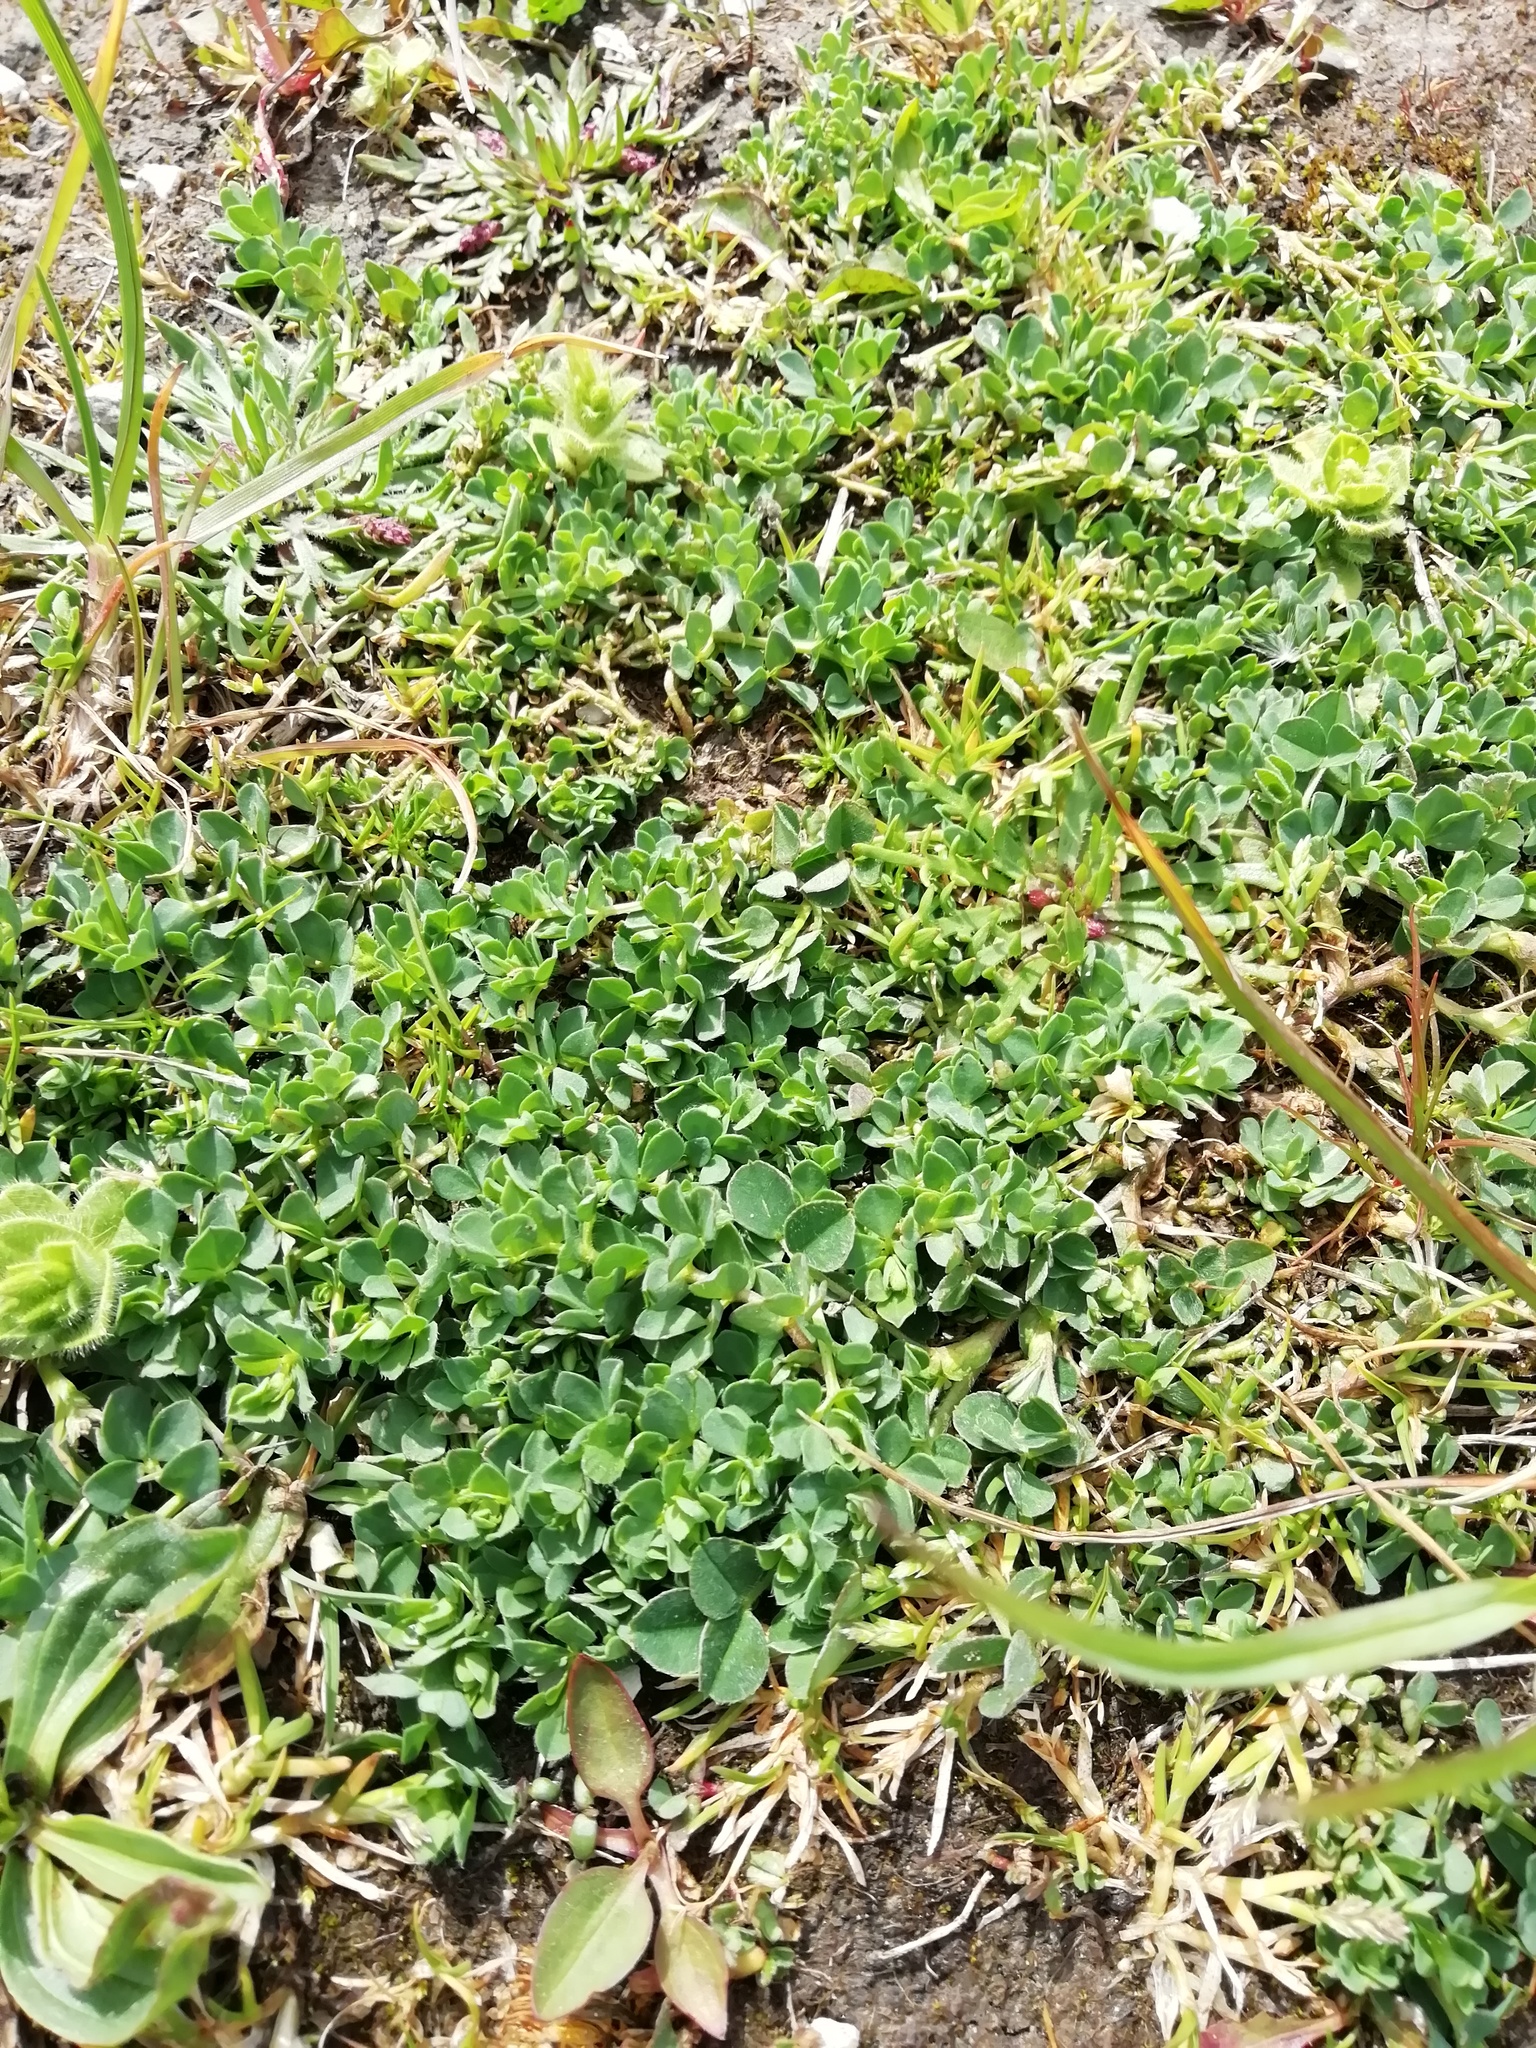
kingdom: Plantae
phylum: Tracheophyta
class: Magnoliopsida
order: Fabales
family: Fabaceae
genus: Lotus
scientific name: Lotus corniculatus
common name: Common bird's-foot-trefoil
